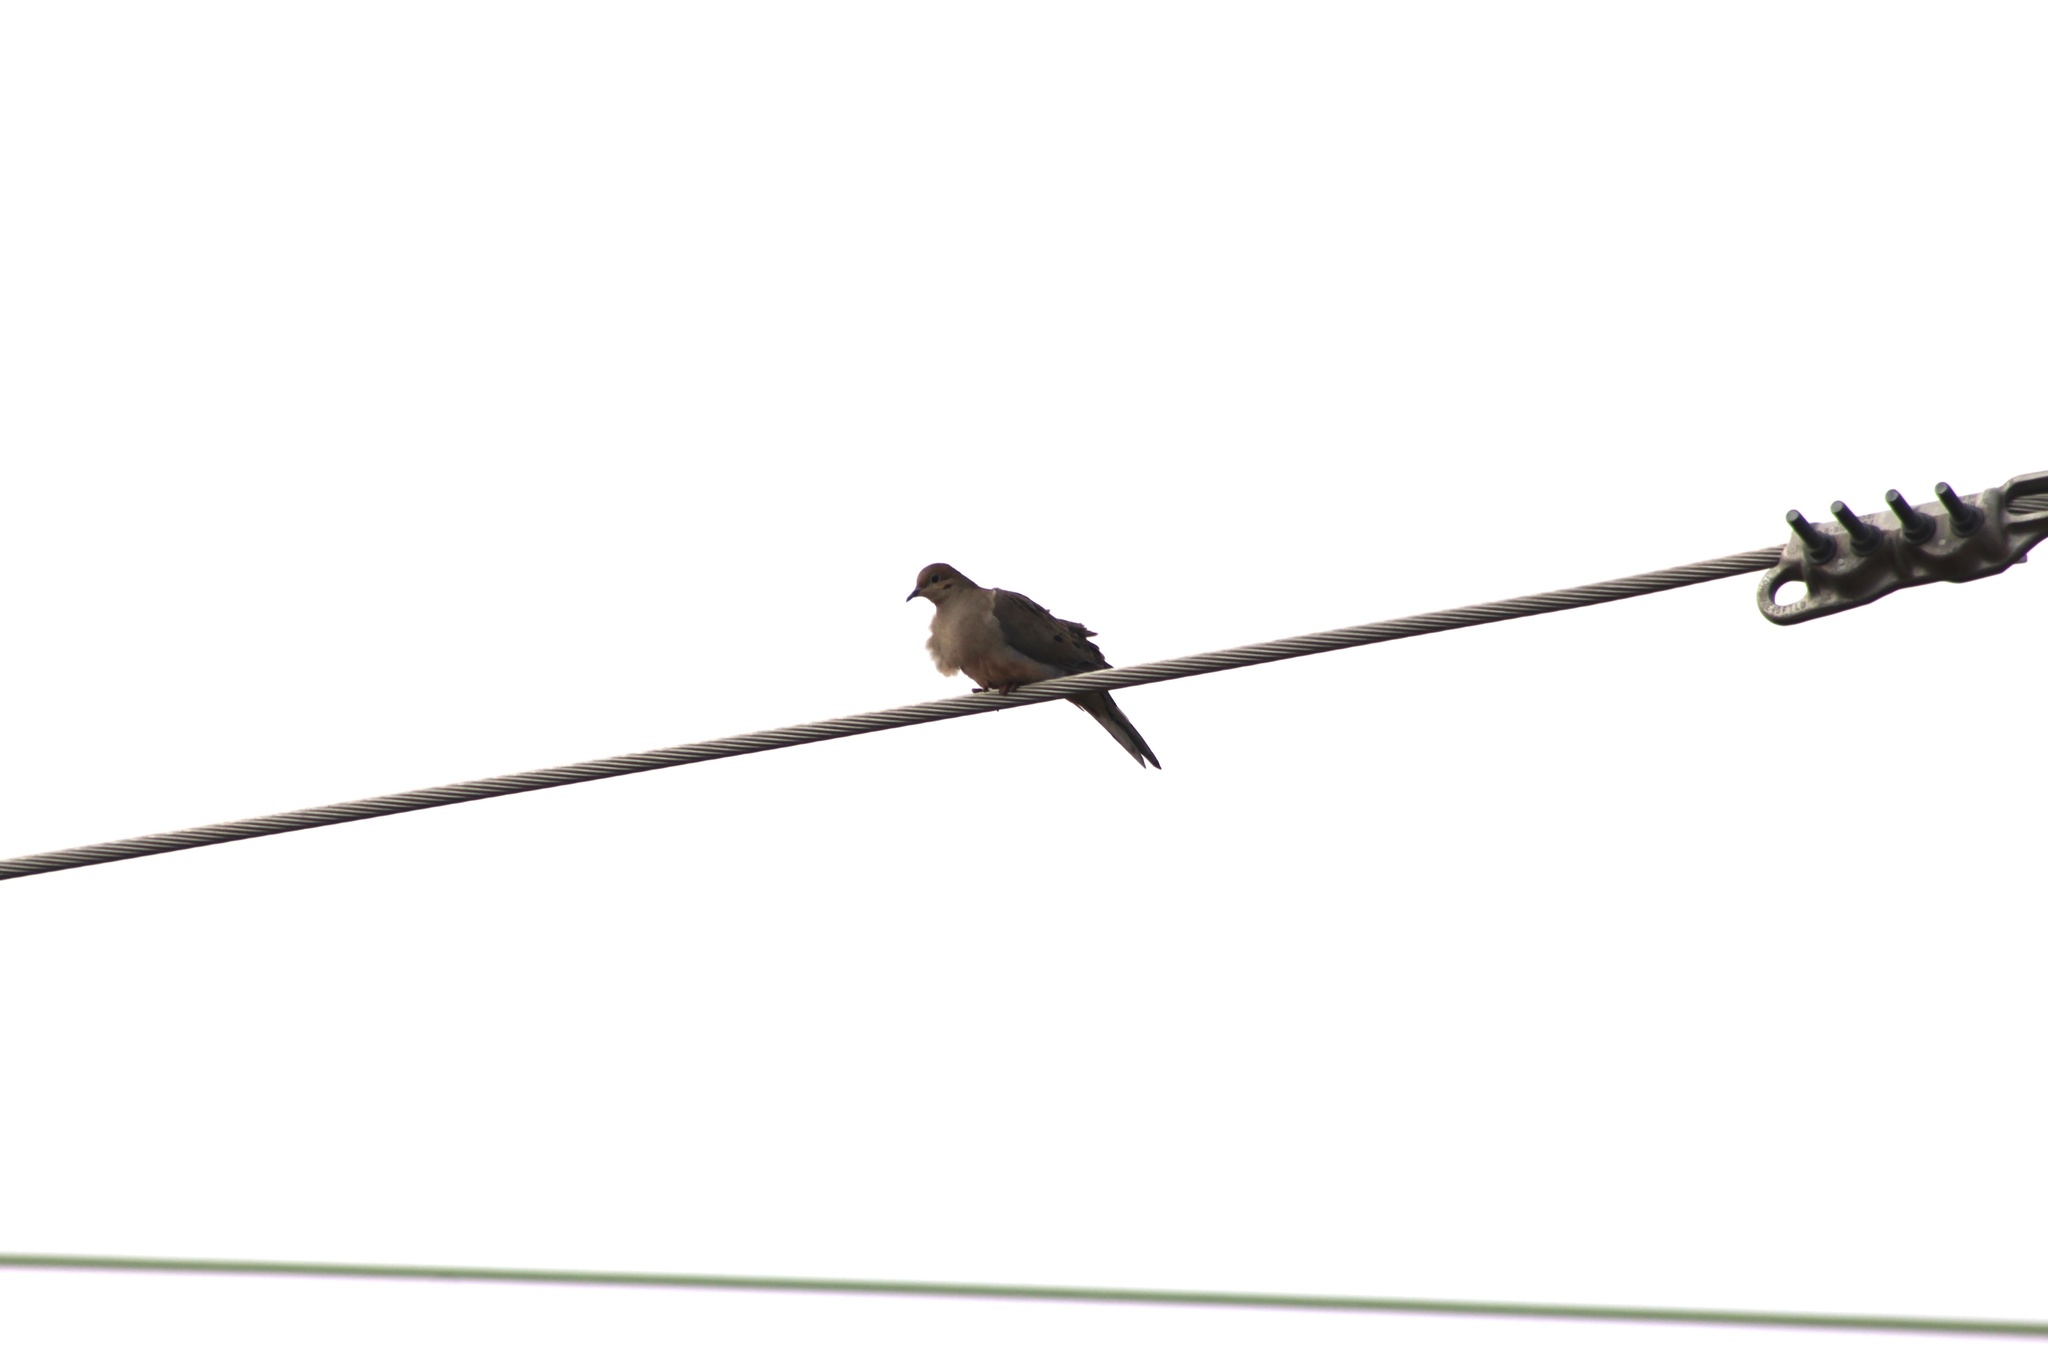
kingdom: Animalia
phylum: Chordata
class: Aves
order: Columbiformes
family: Columbidae
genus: Zenaida
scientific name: Zenaida macroura
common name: Mourning dove
